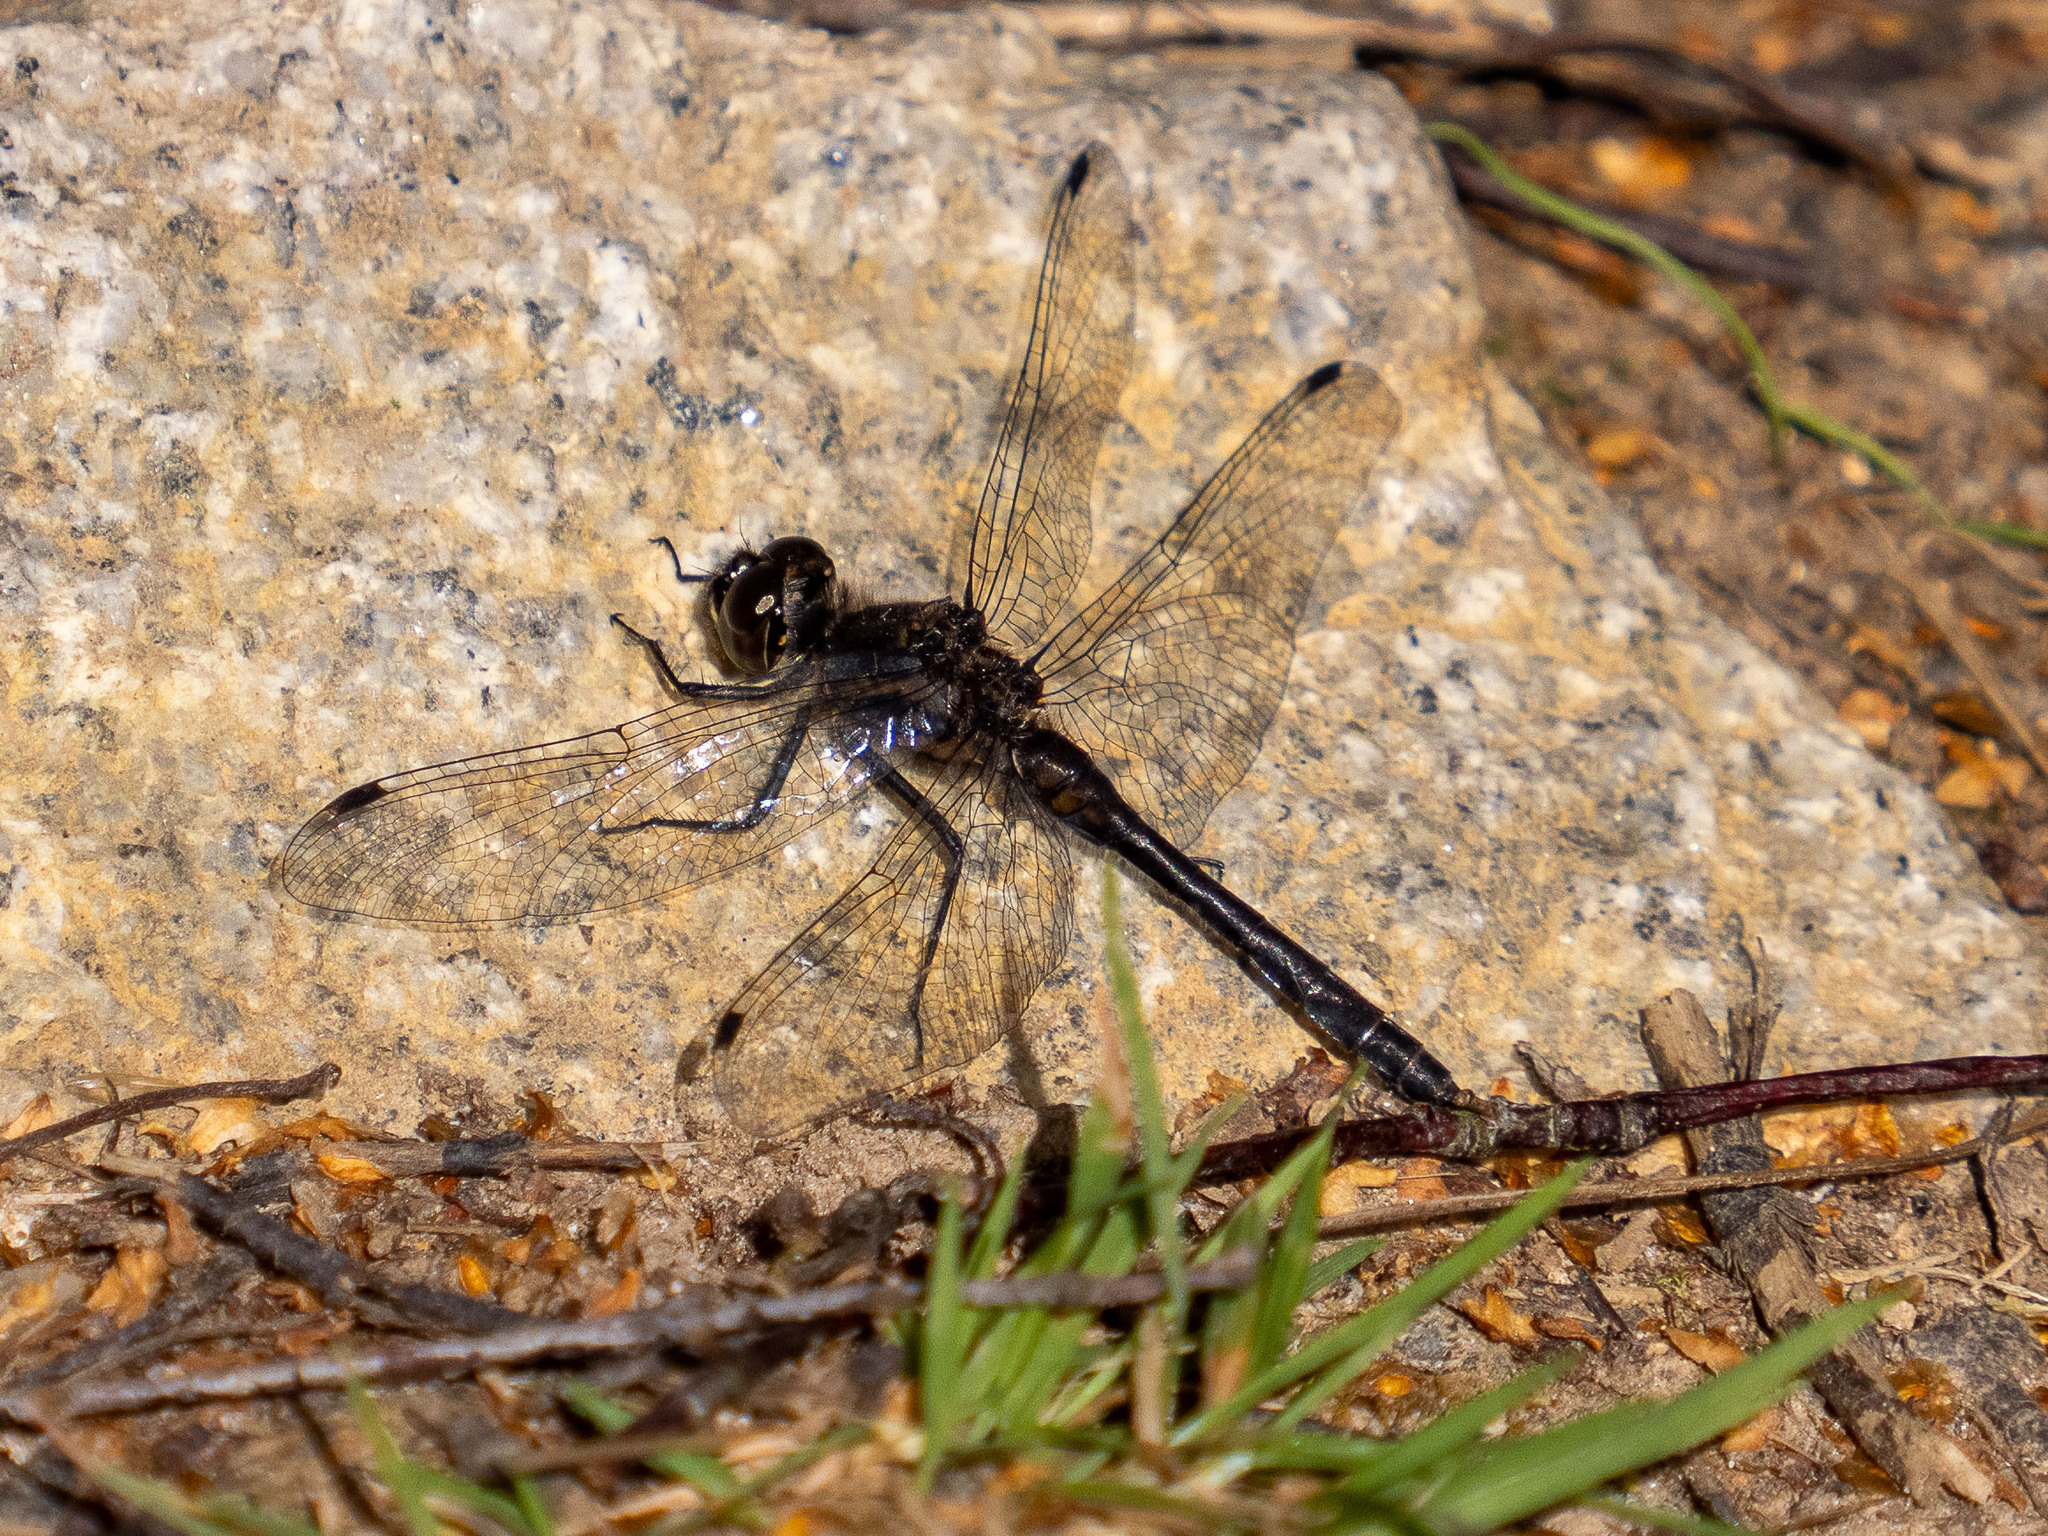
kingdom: Animalia
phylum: Arthropoda
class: Insecta
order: Odonata
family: Libellulidae
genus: Sympetrum
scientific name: Sympetrum danae
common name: Black darter
